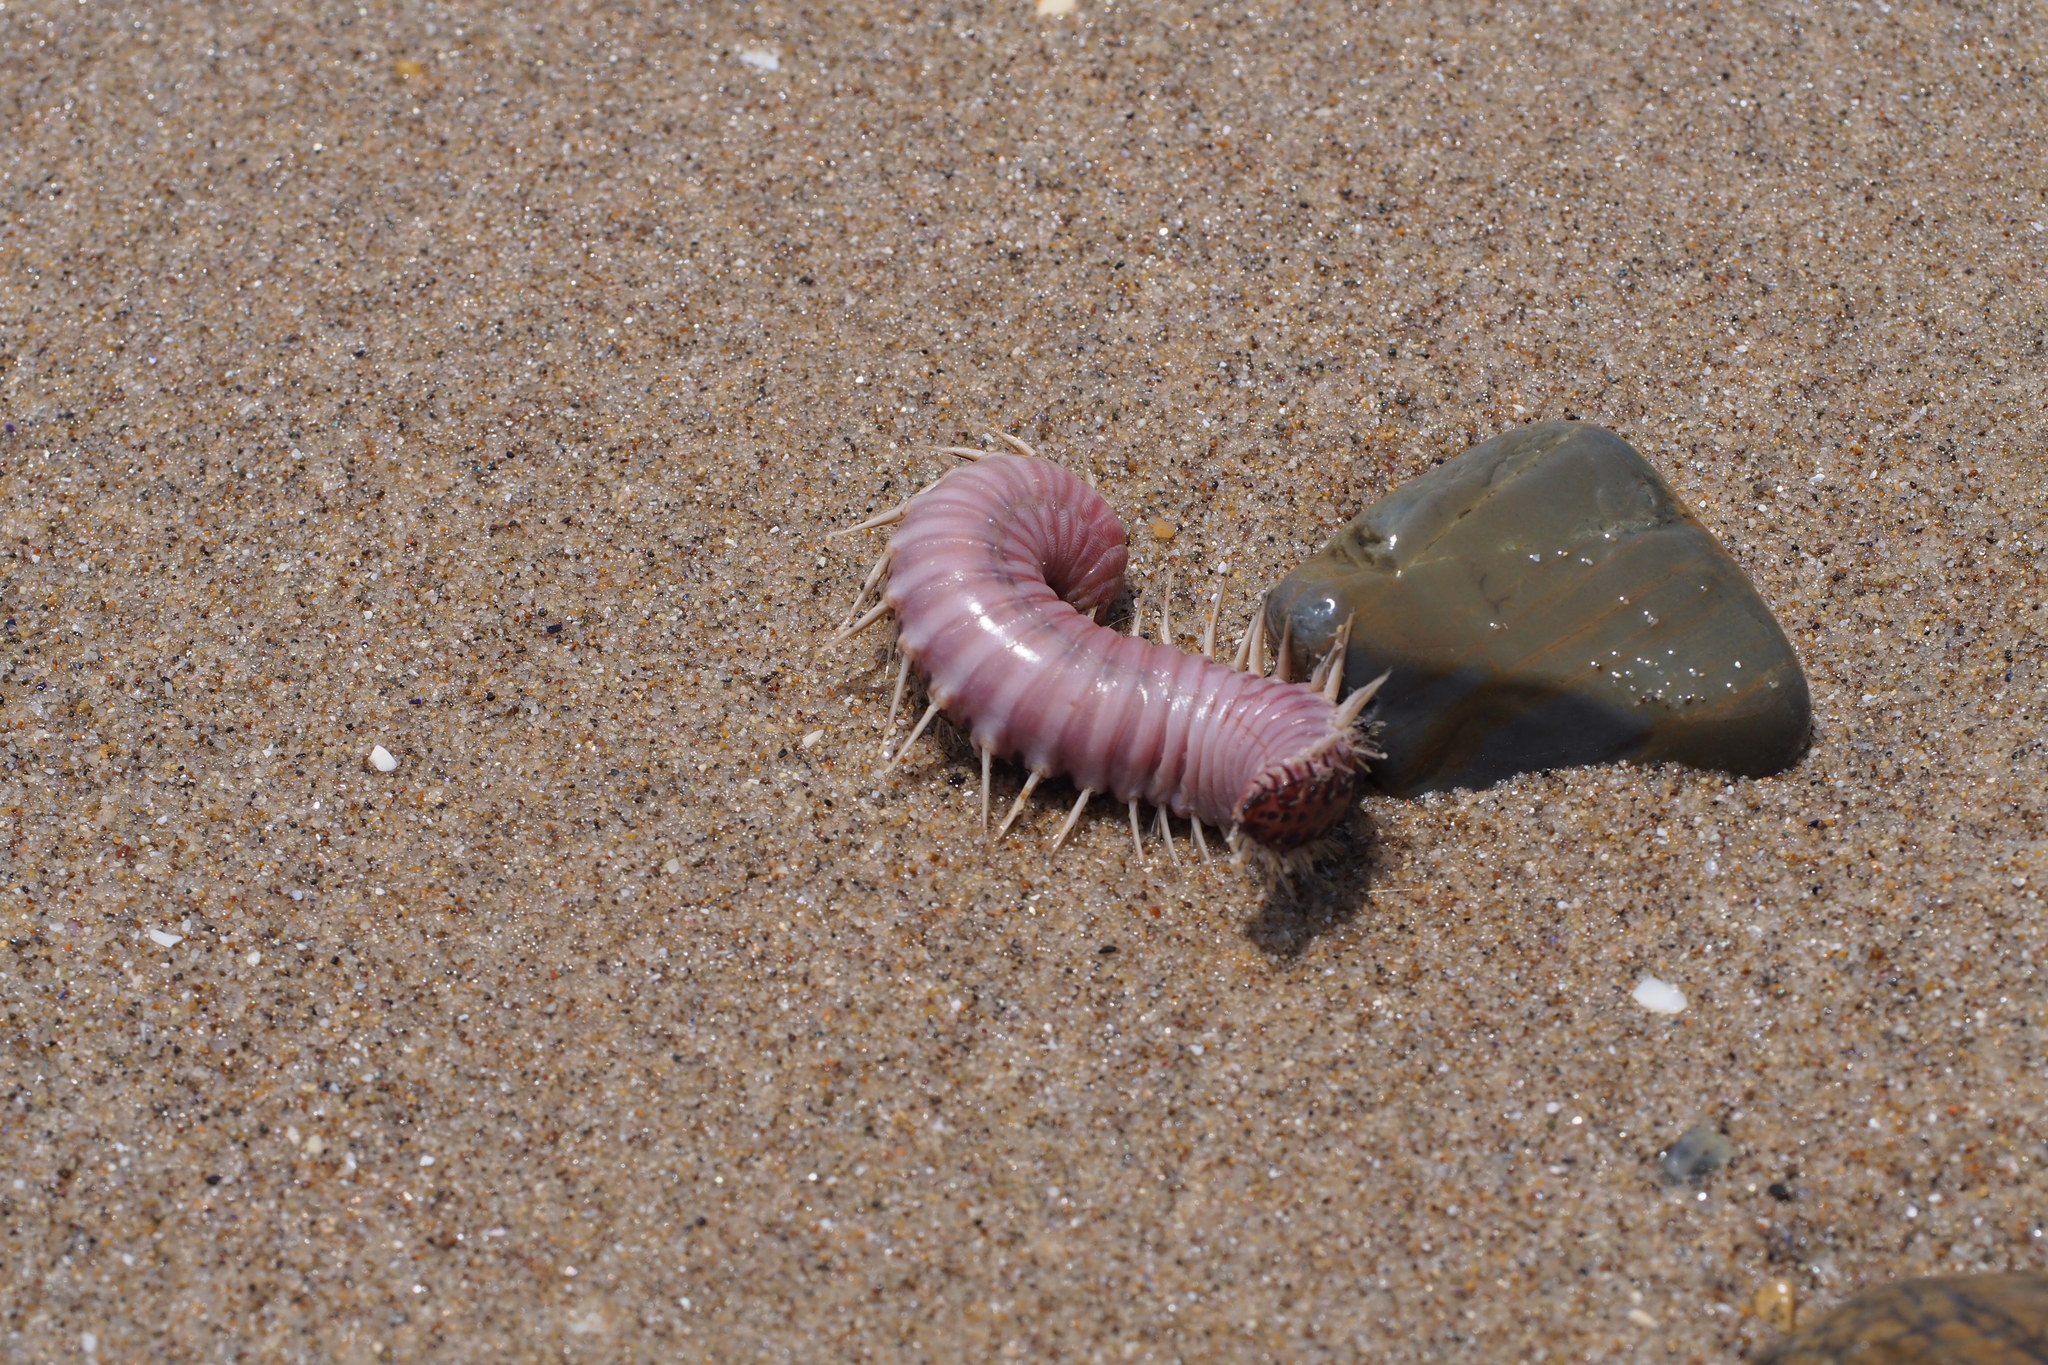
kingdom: Animalia
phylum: Annelida
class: Polychaeta
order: Amphinomida
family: Amphinomidae
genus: Chloeia
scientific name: Chloeia flava
